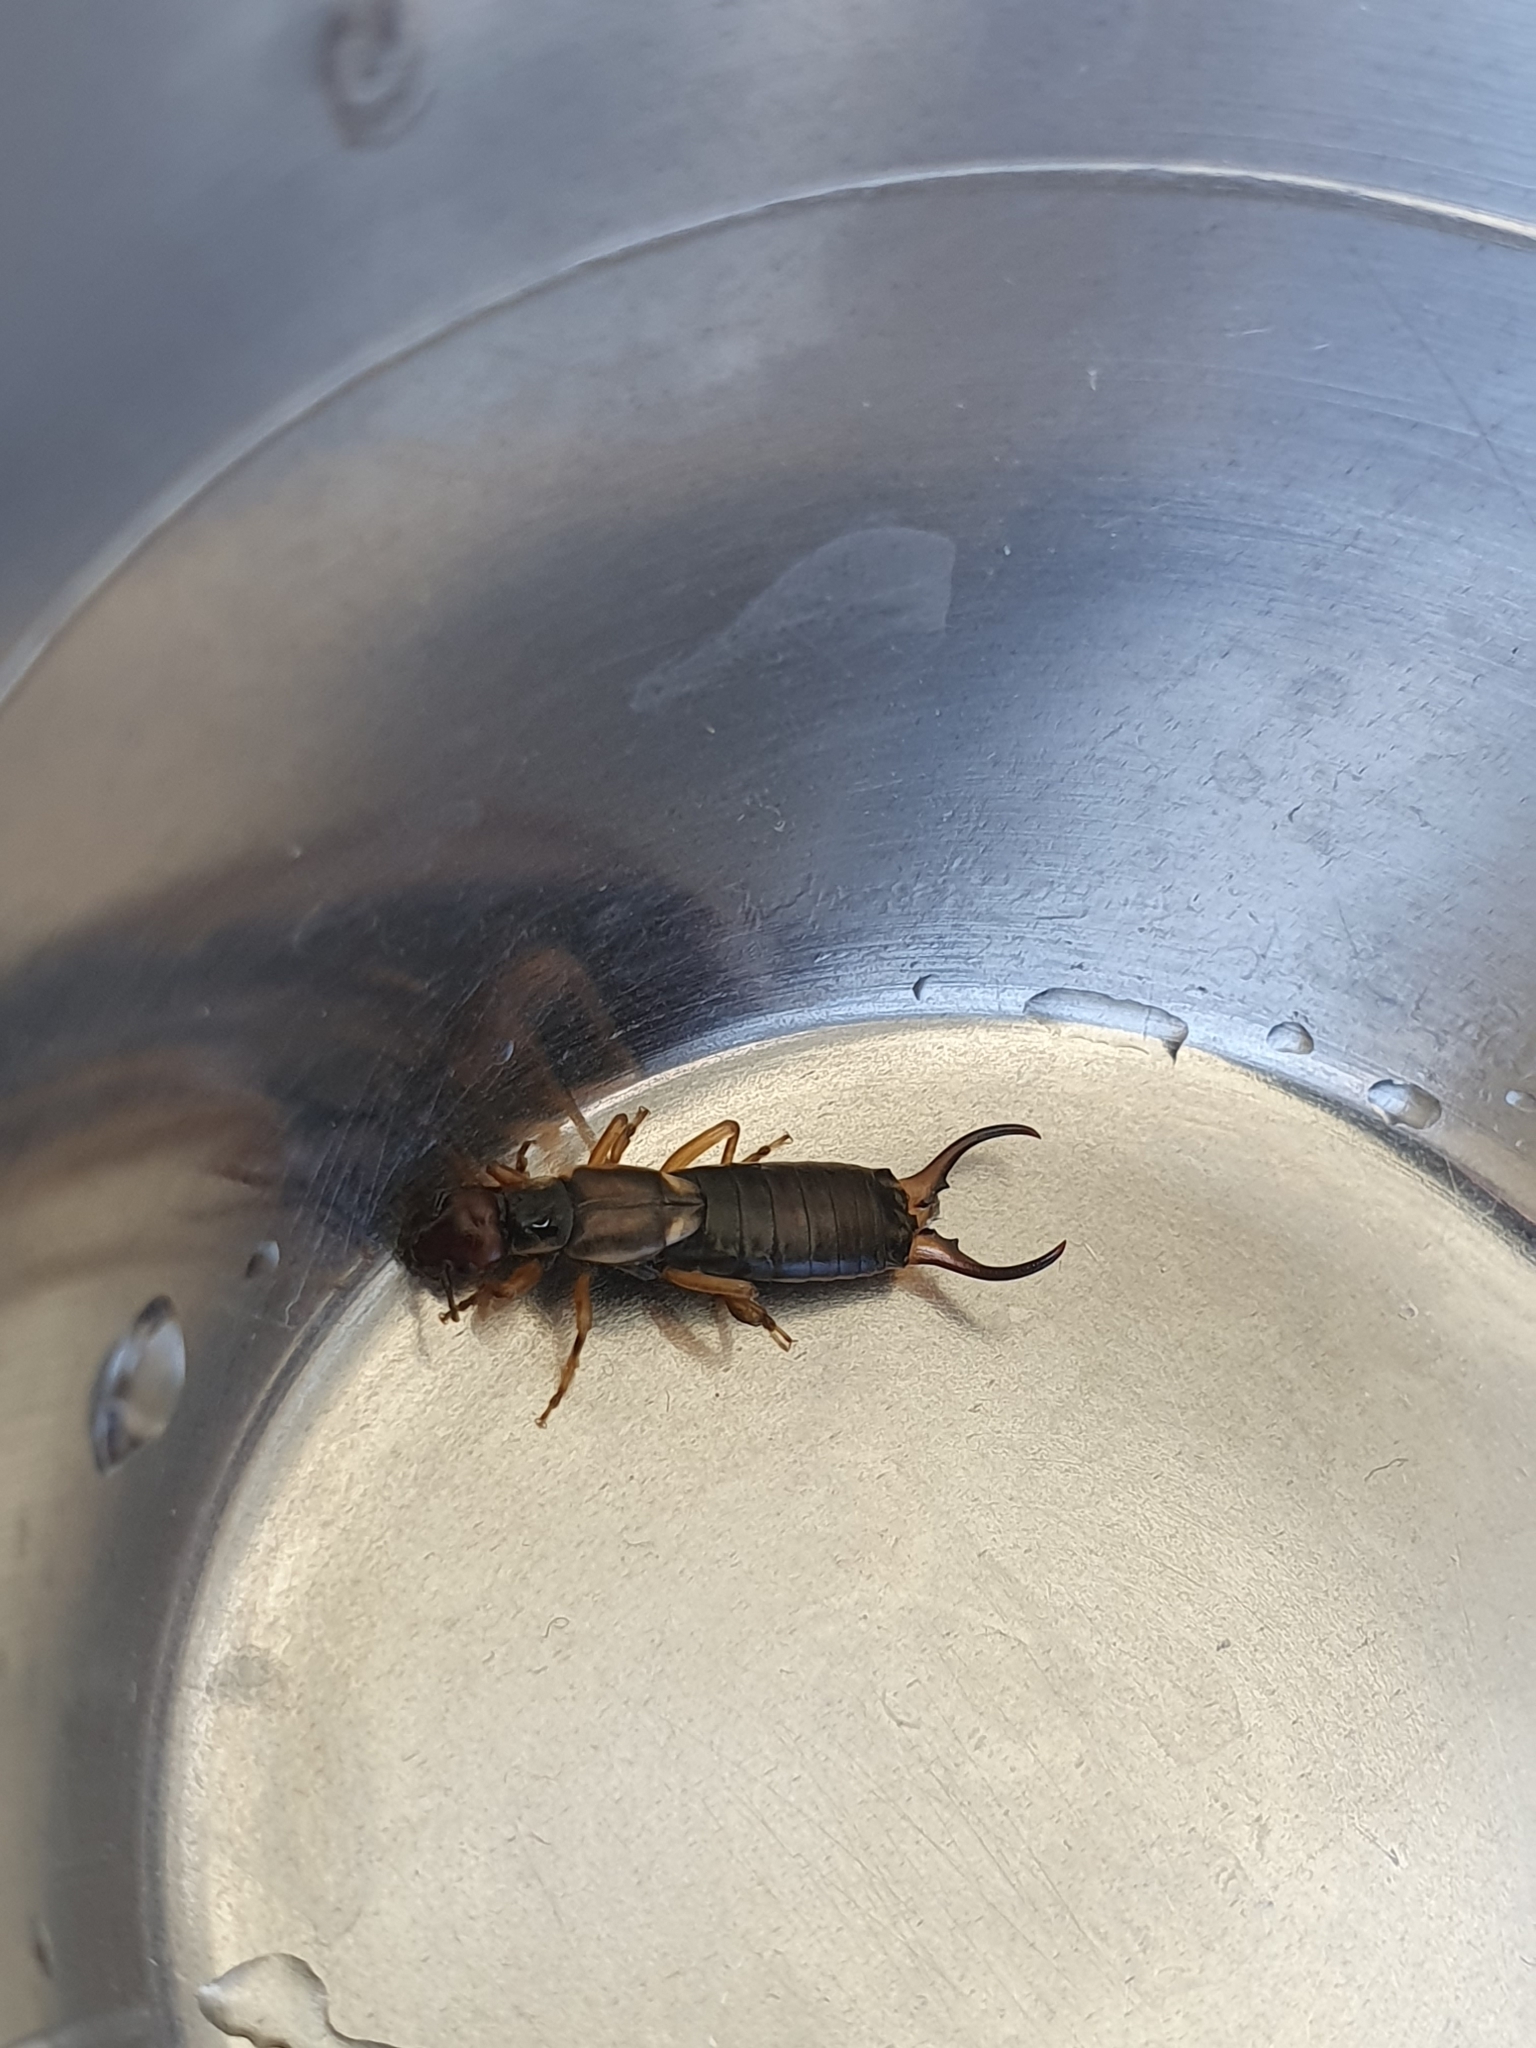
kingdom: Animalia
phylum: Arthropoda
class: Insecta
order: Dermaptera
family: Forficulidae
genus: Forficula
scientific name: Forficula
